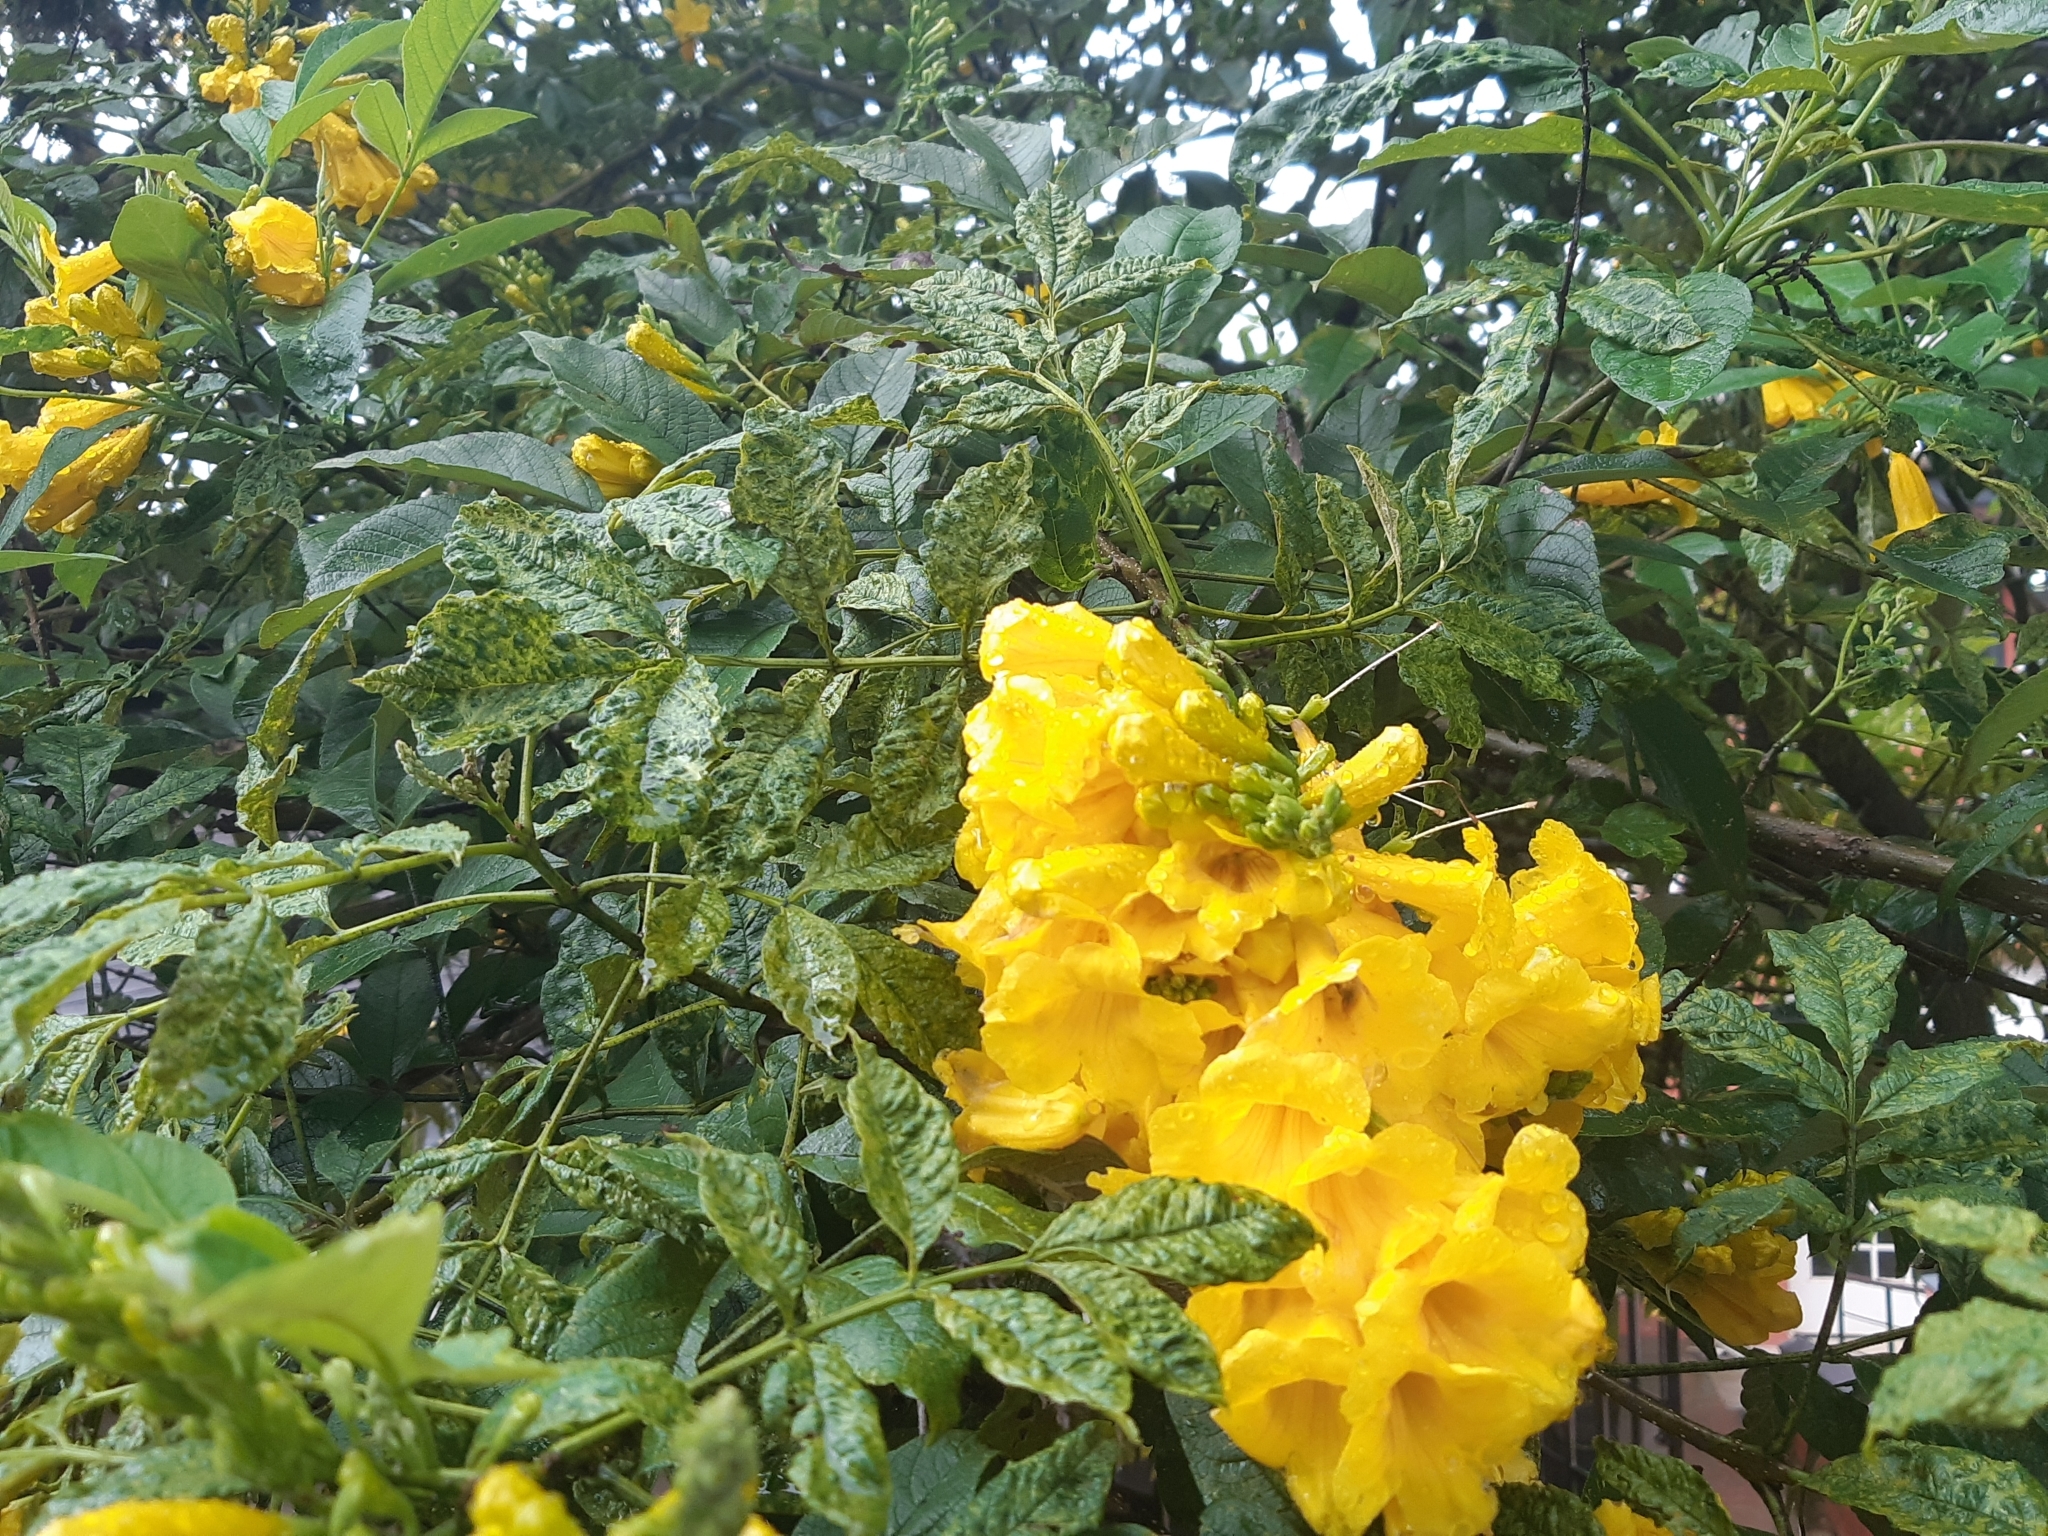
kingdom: Plantae
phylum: Tracheophyta
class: Magnoliopsida
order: Lamiales
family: Bignoniaceae
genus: Tecoma
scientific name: Tecoma stans
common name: Yellow trumpetbush
